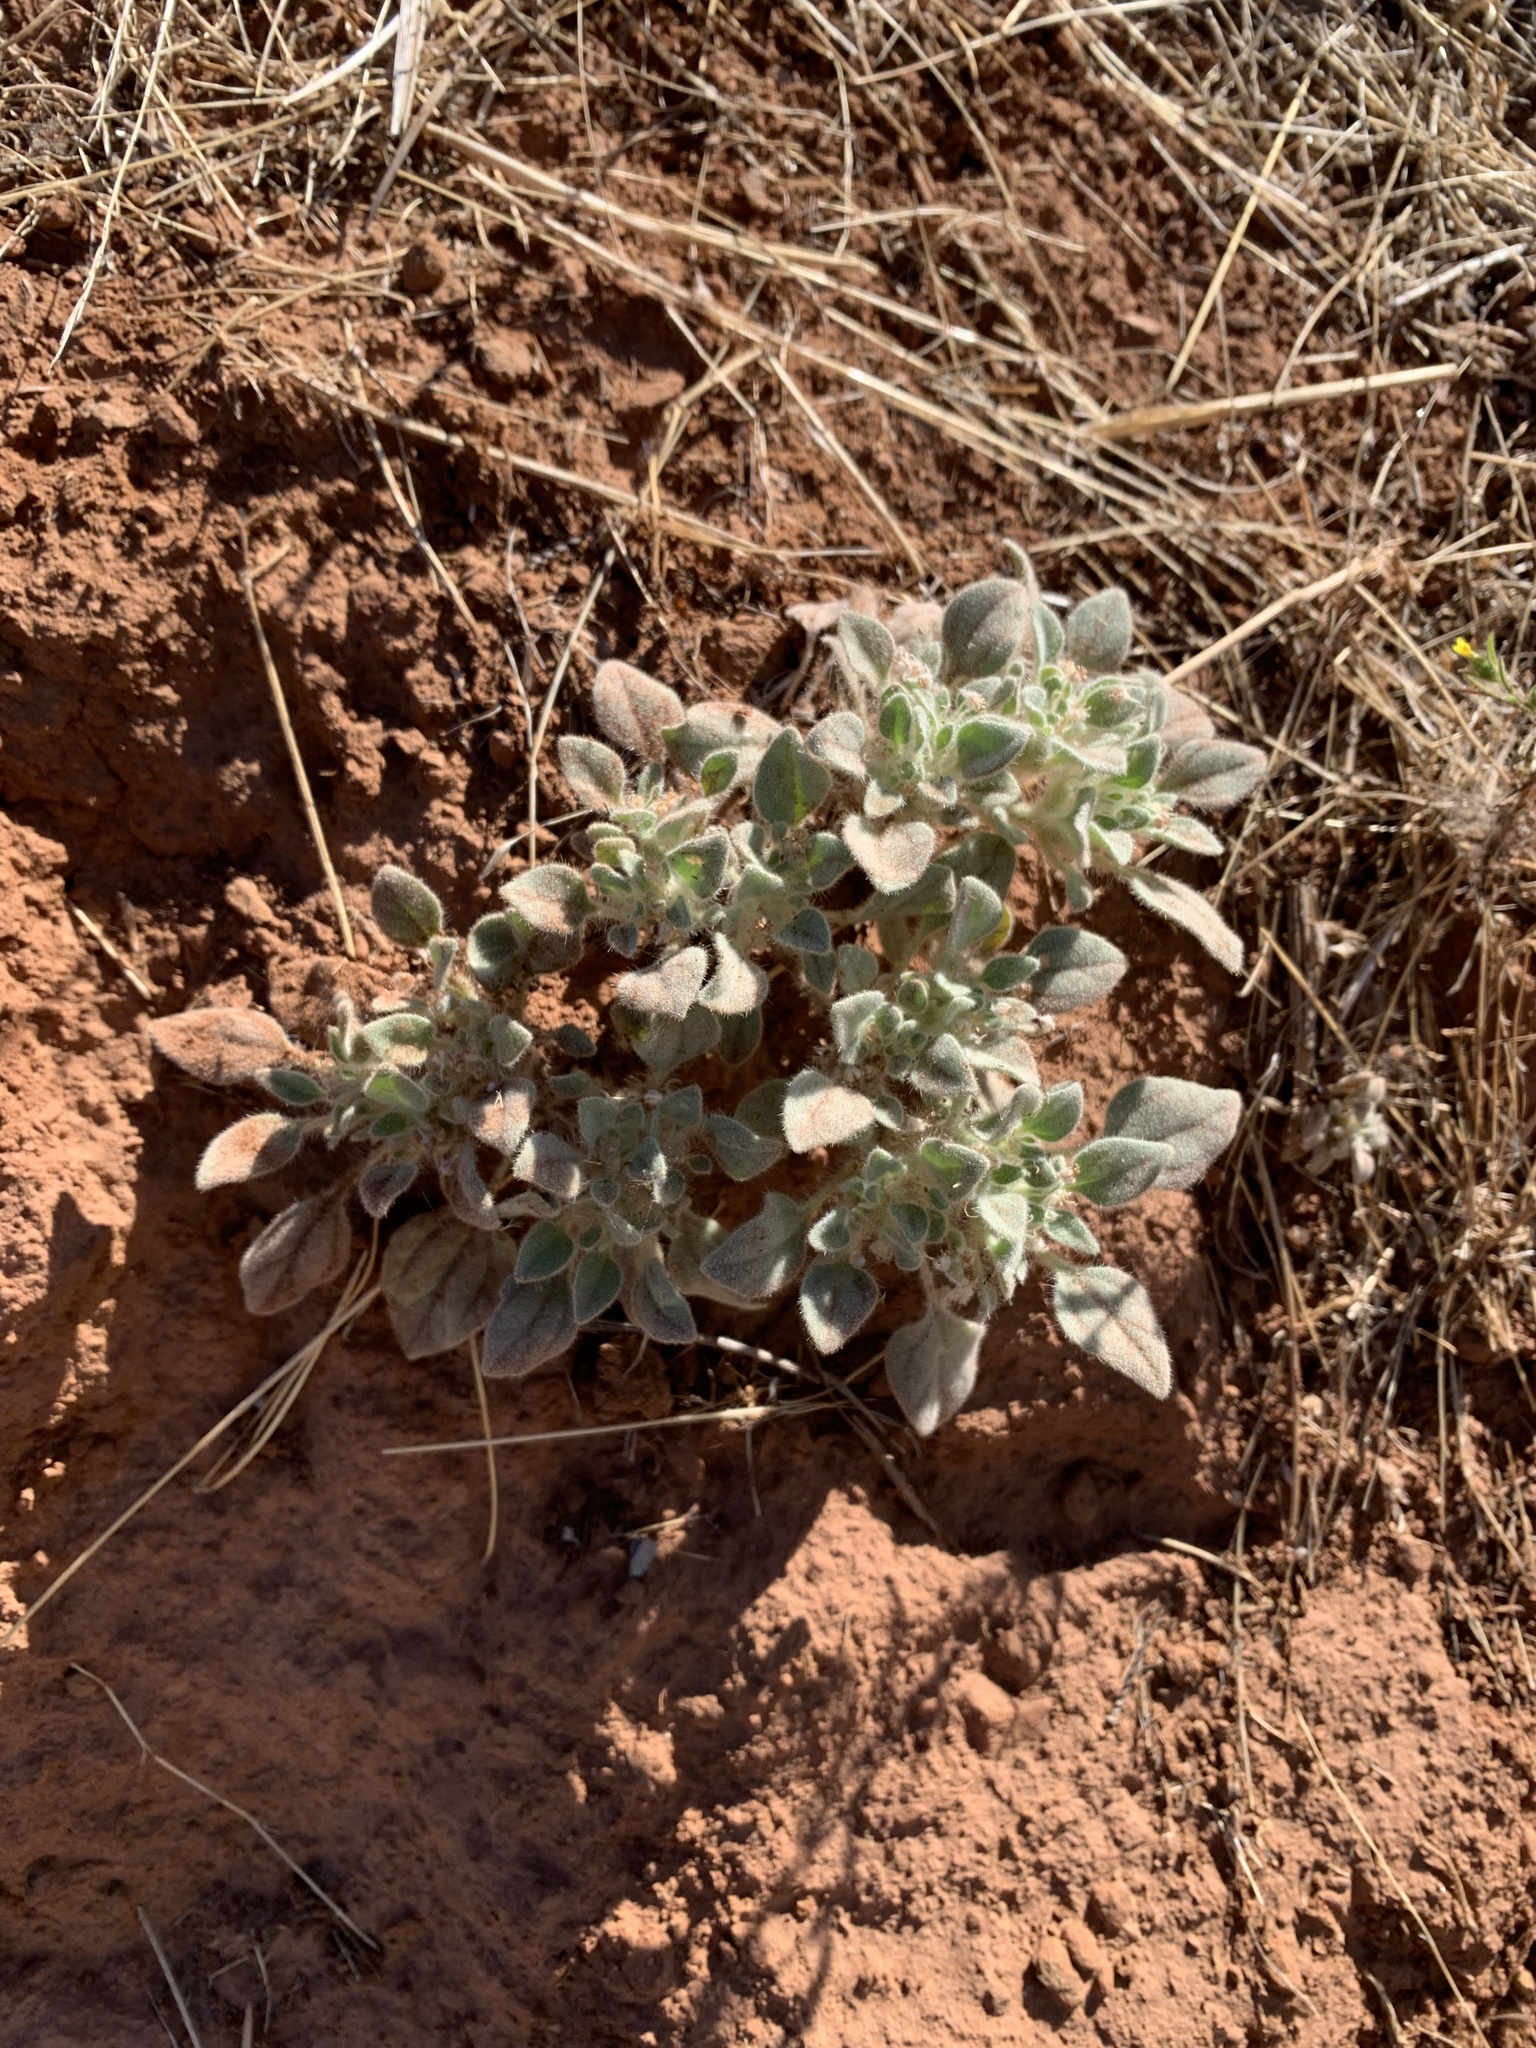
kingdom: Plantae
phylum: Tracheophyta
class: Magnoliopsida
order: Malpighiales
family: Euphorbiaceae
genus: Croton
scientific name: Croton setiger
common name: Dove weed
